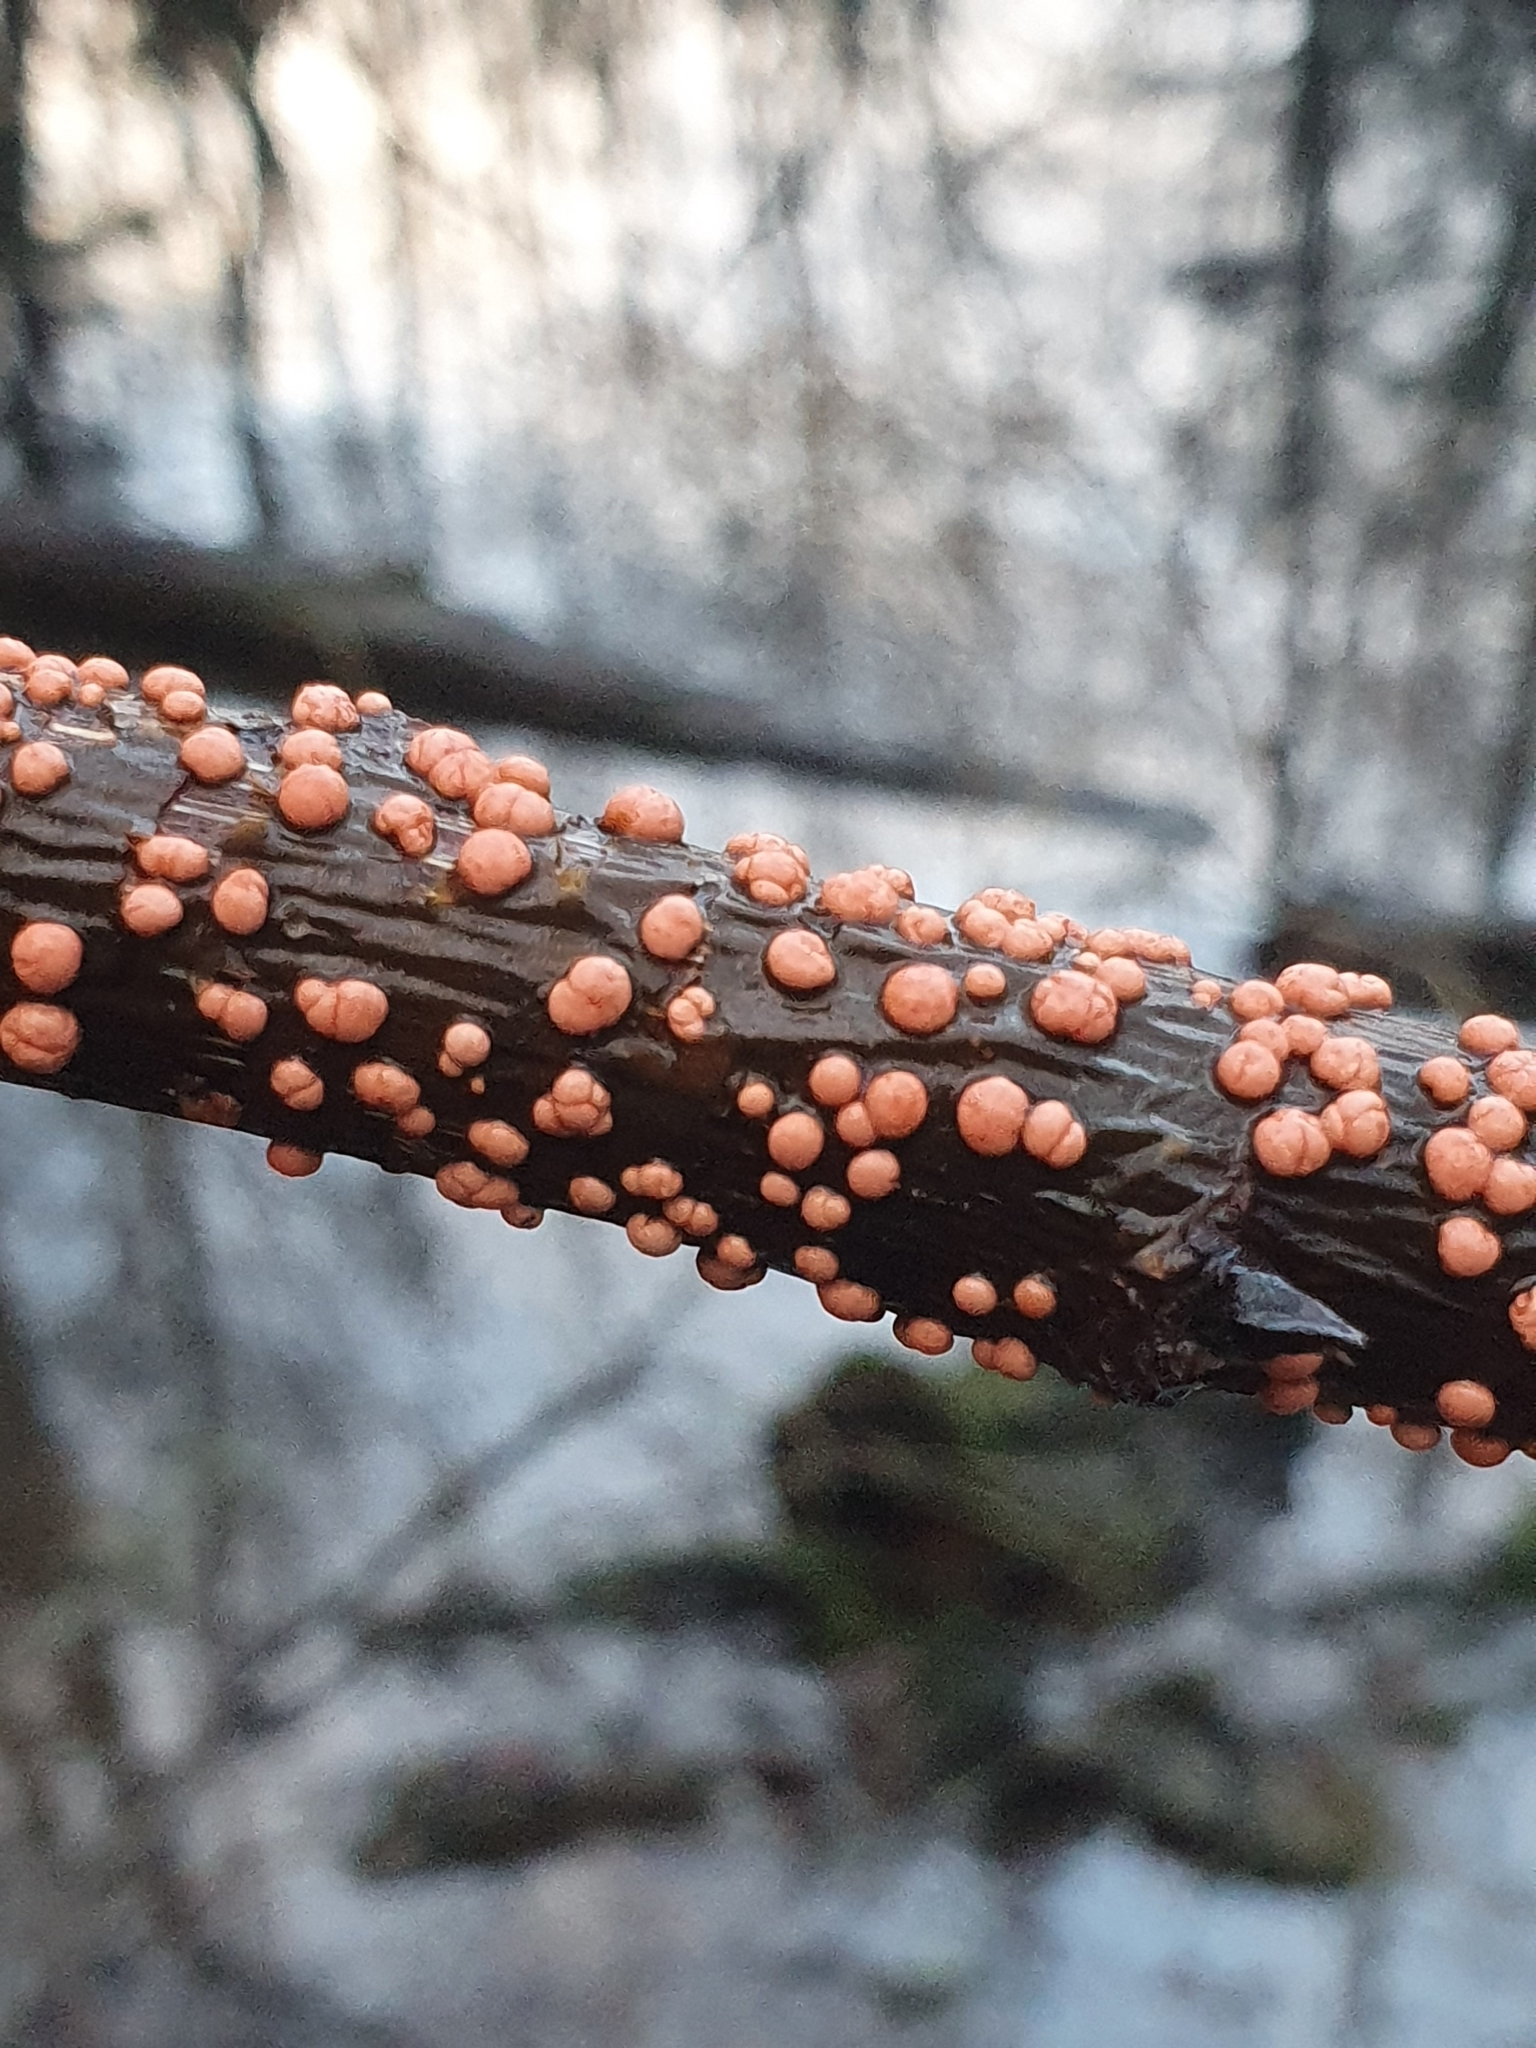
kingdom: Fungi
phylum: Ascomycota
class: Sordariomycetes
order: Hypocreales
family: Nectriaceae
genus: Nectria
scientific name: Nectria cinnabarina
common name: Coral spot
